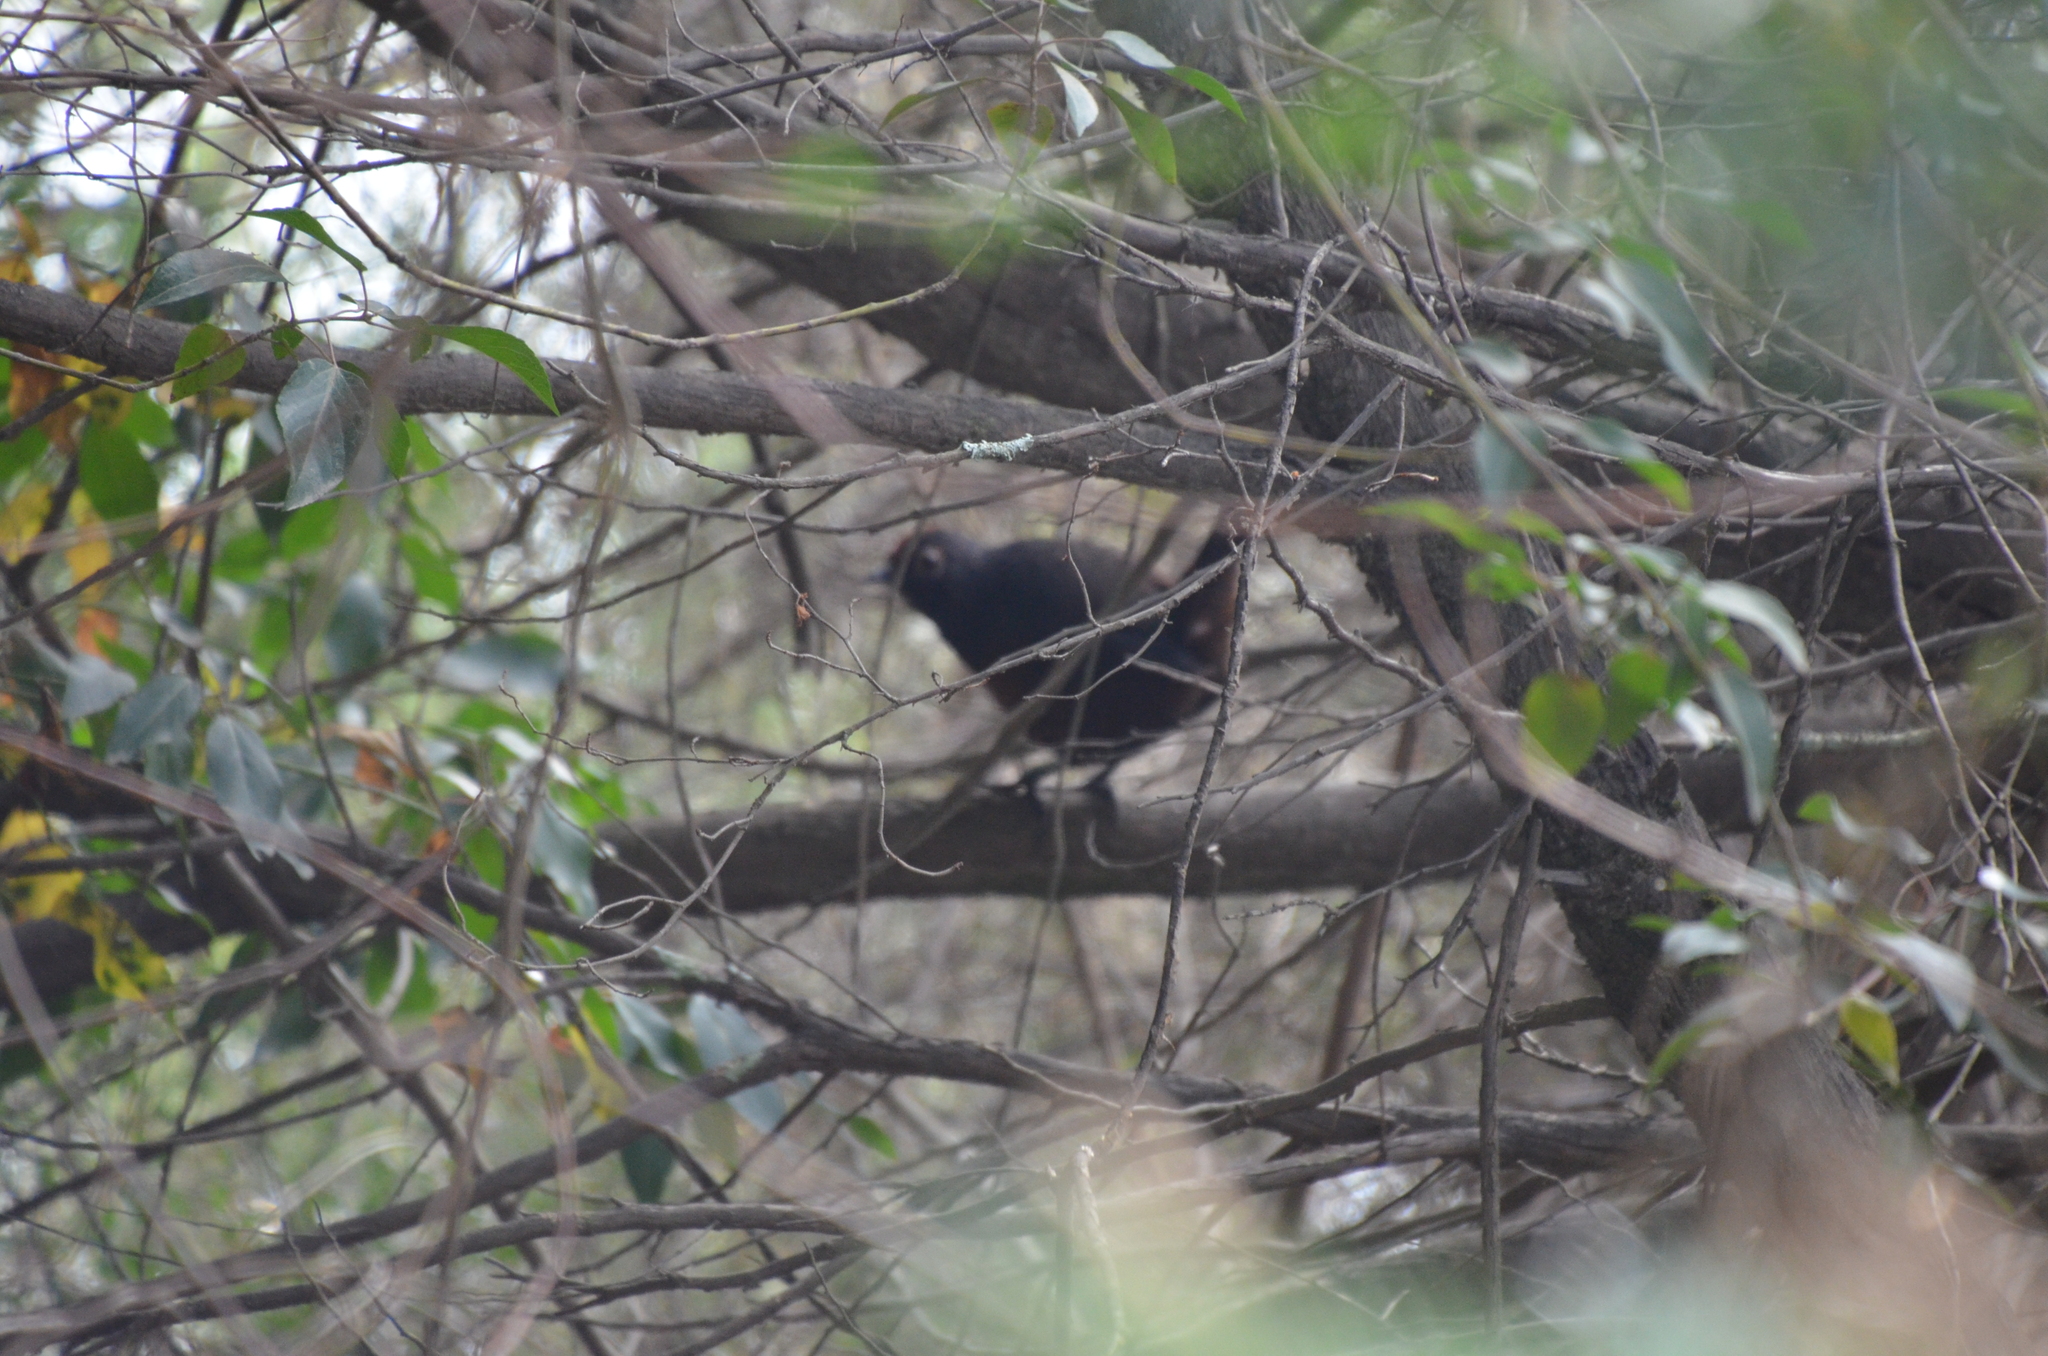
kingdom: Animalia
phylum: Chordata
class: Aves
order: Passeriformes
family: Rhinocryptidae
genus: Pteroptochos
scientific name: Pteroptochos tarnii
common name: Black-throated huet-huet
